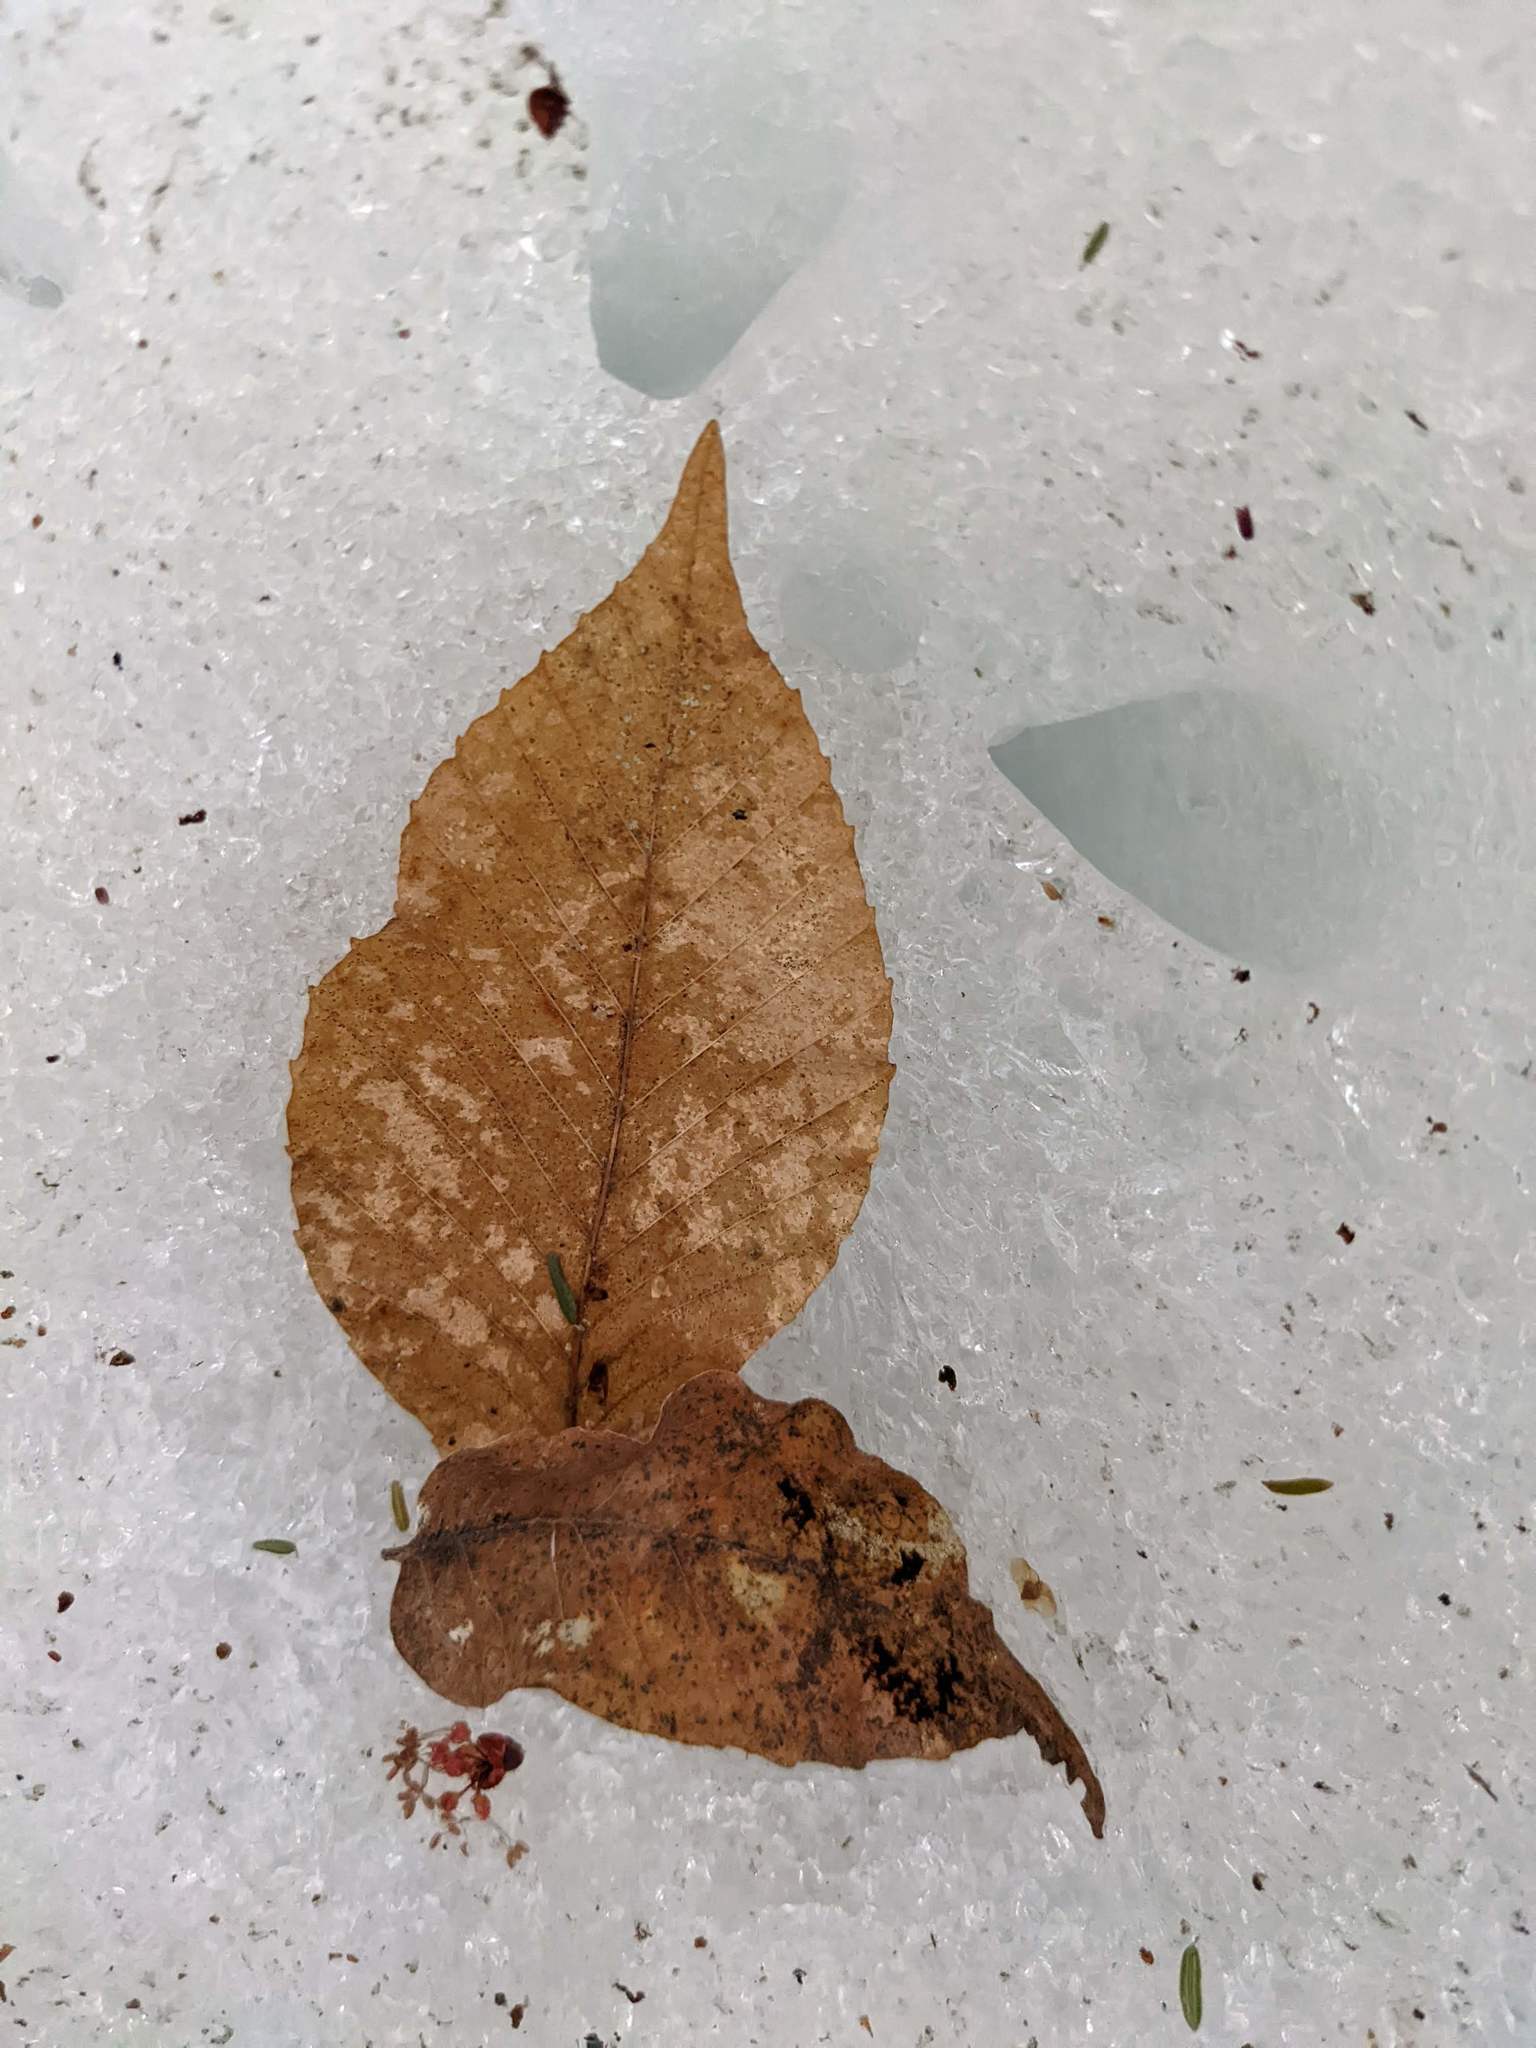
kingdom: Plantae
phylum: Tracheophyta
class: Magnoliopsida
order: Fagales
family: Fagaceae
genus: Fagus
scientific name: Fagus grandifolia
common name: American beech
